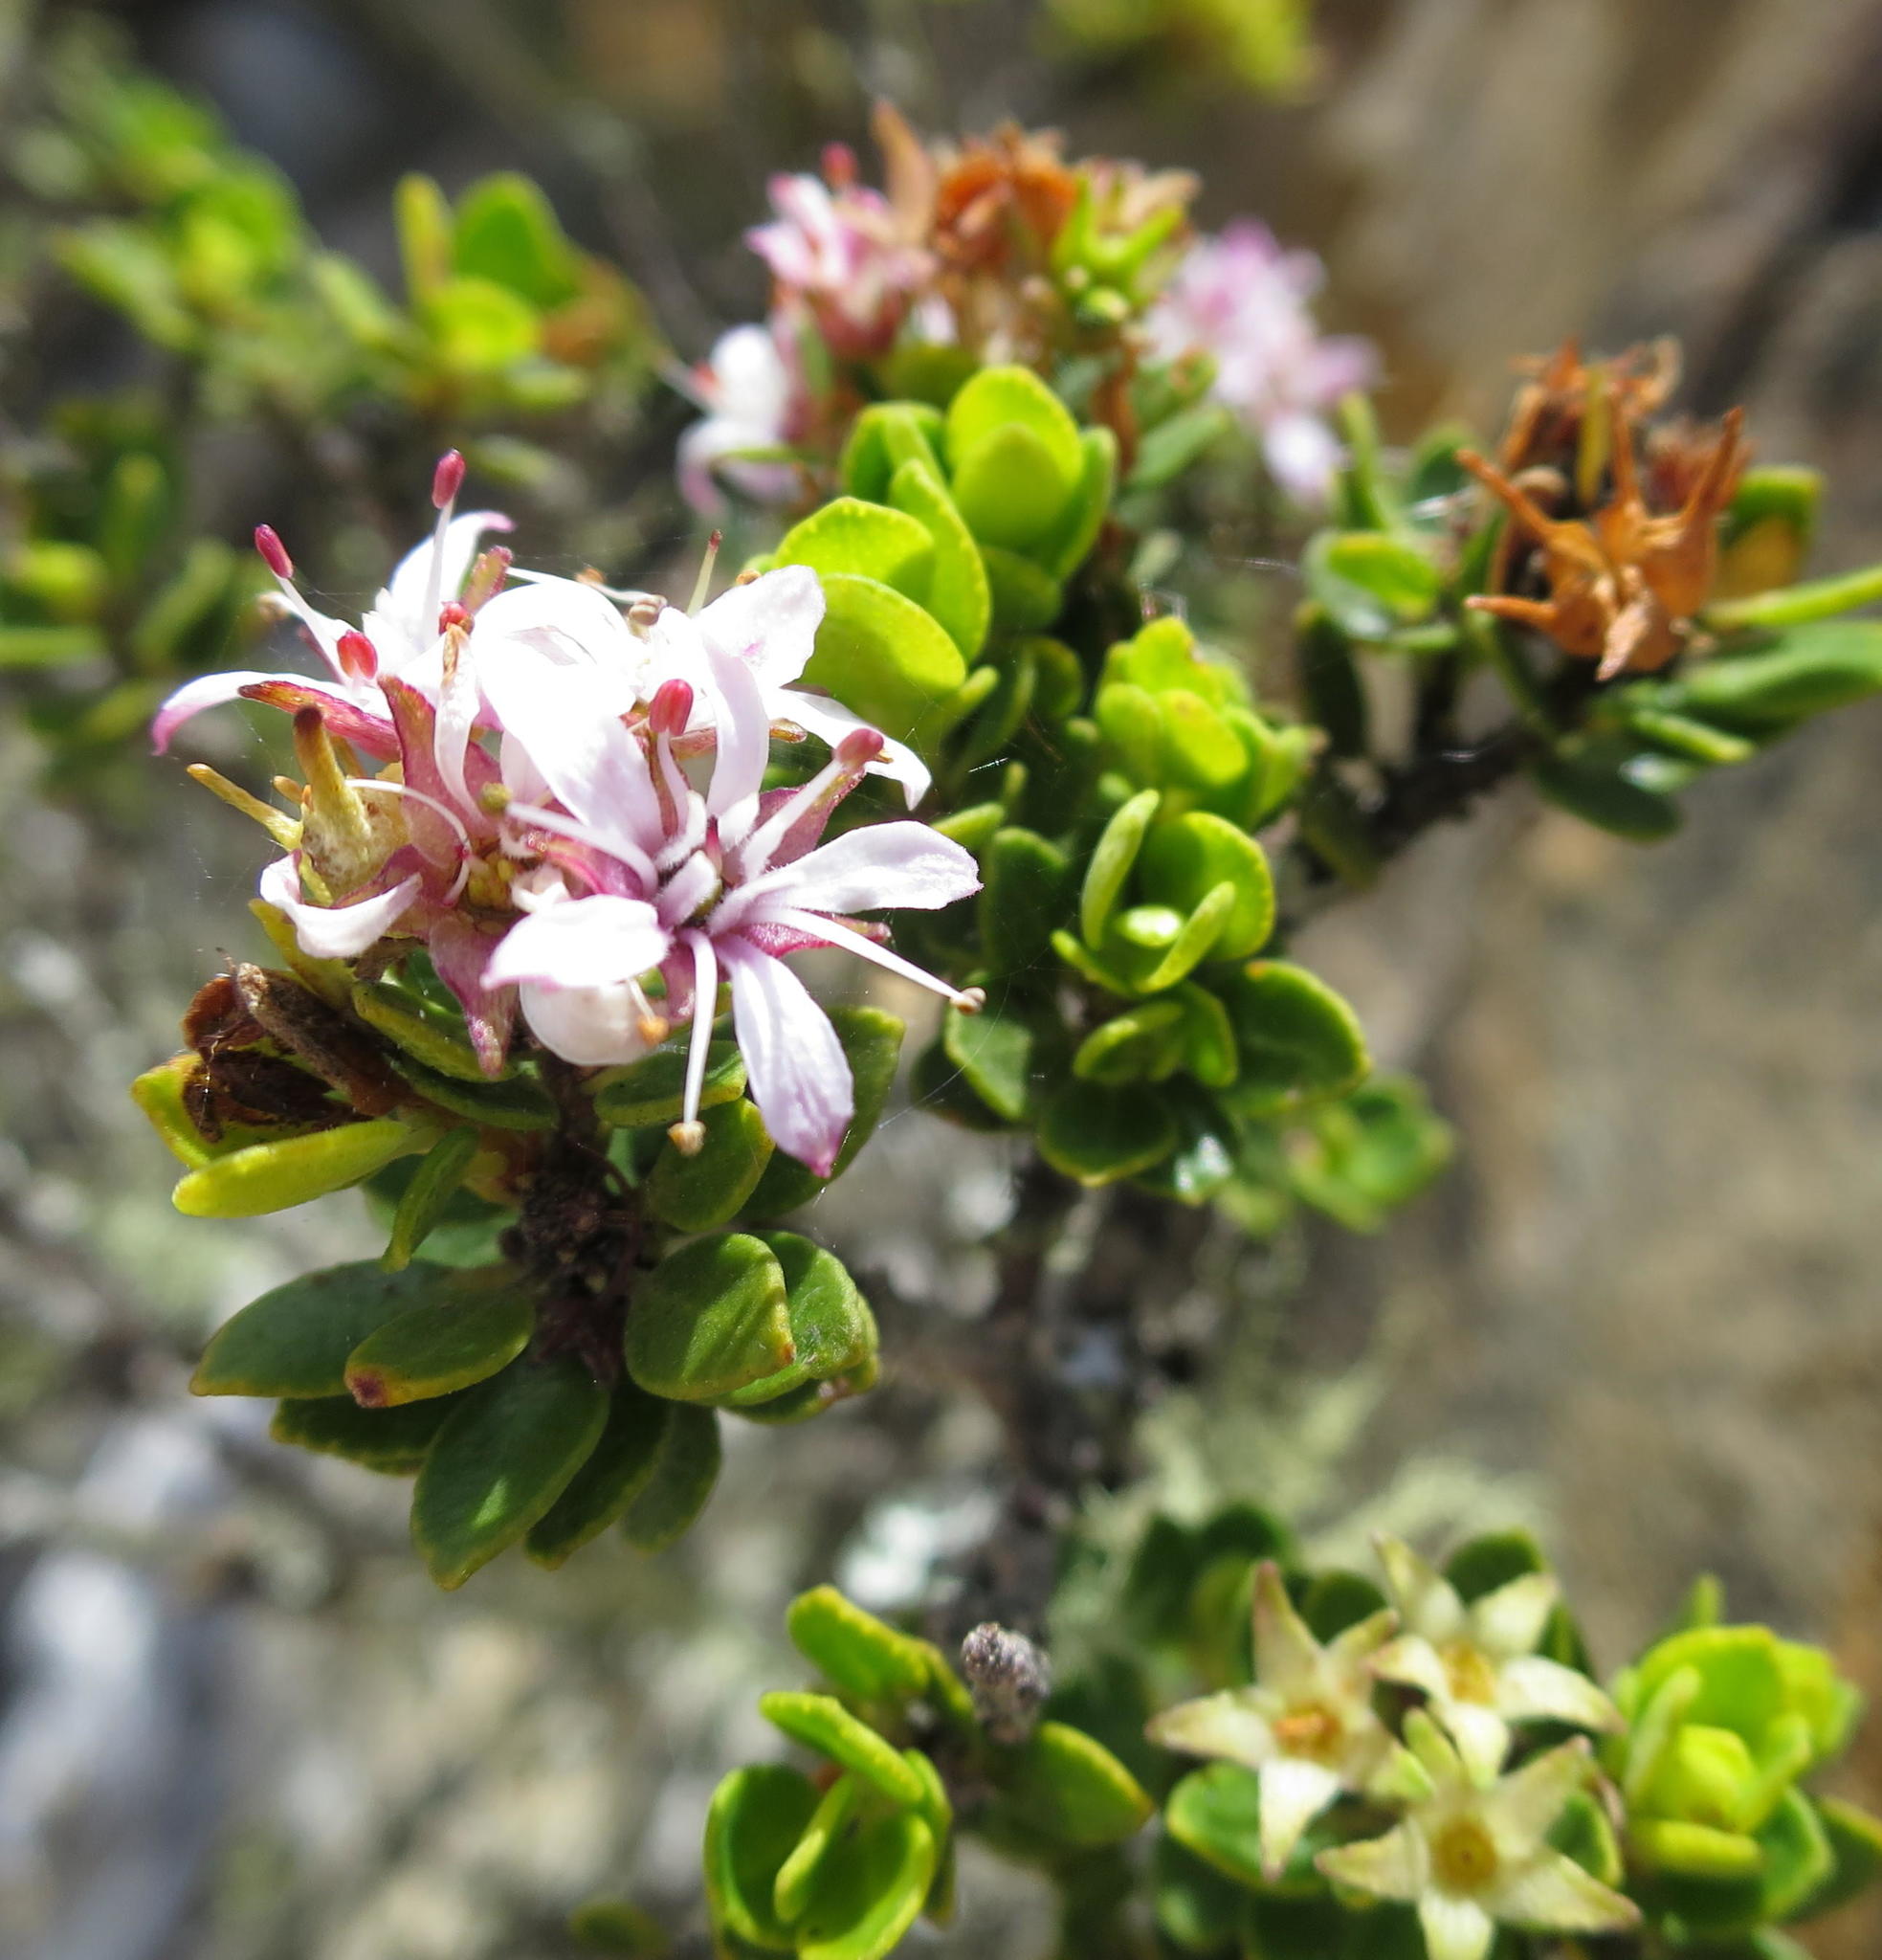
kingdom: Plantae
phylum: Tracheophyta
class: Magnoliopsida
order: Sapindales
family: Rutaceae
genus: Agathosma
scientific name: Agathosma ovata
